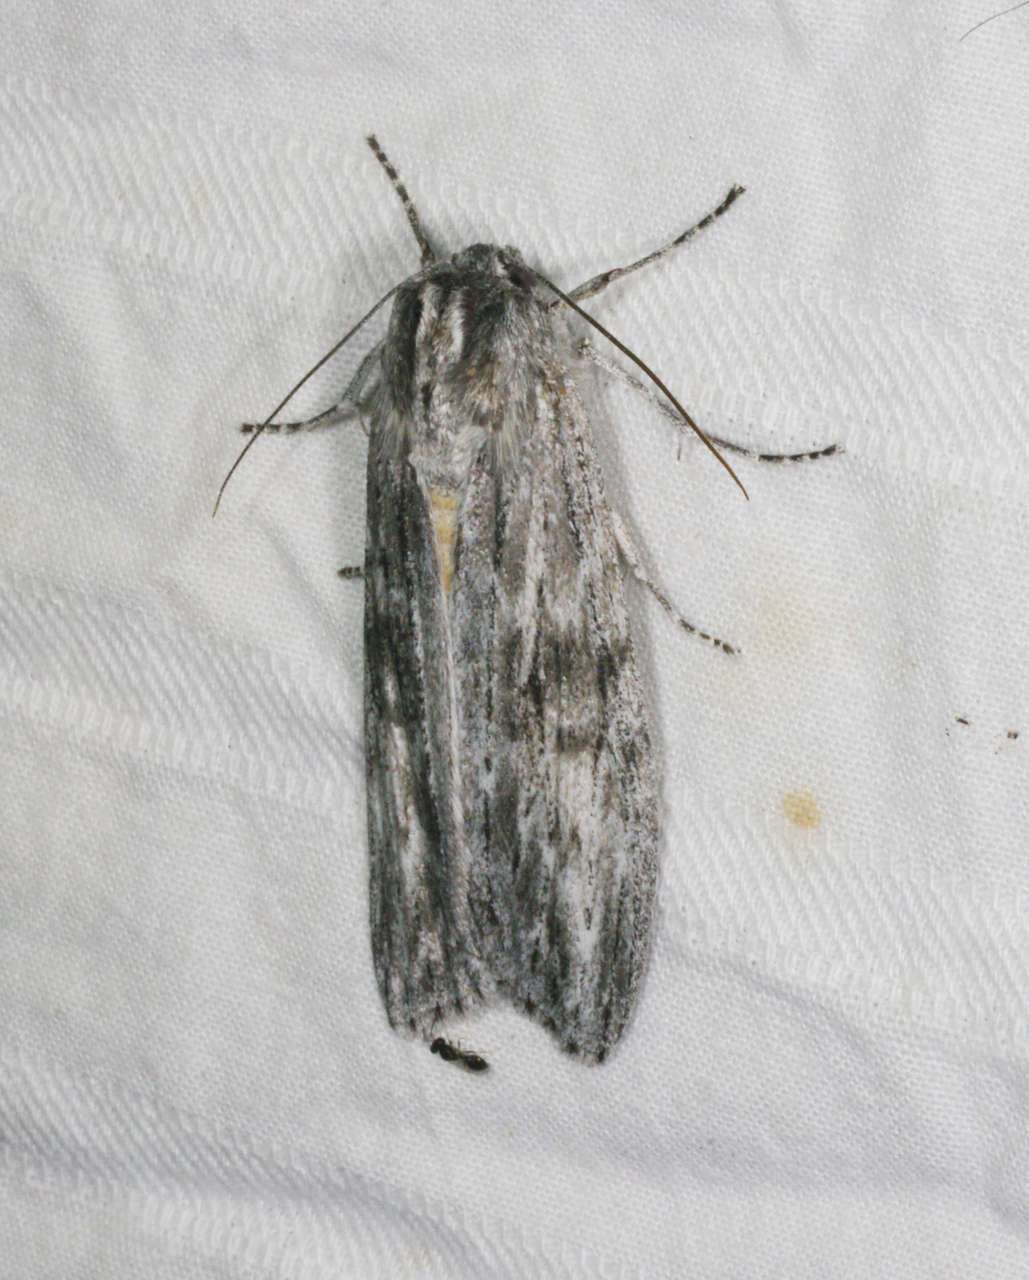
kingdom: Animalia
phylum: Arthropoda
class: Insecta
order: Lepidoptera
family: Geometridae
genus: Capusa
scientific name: Capusa senilis
